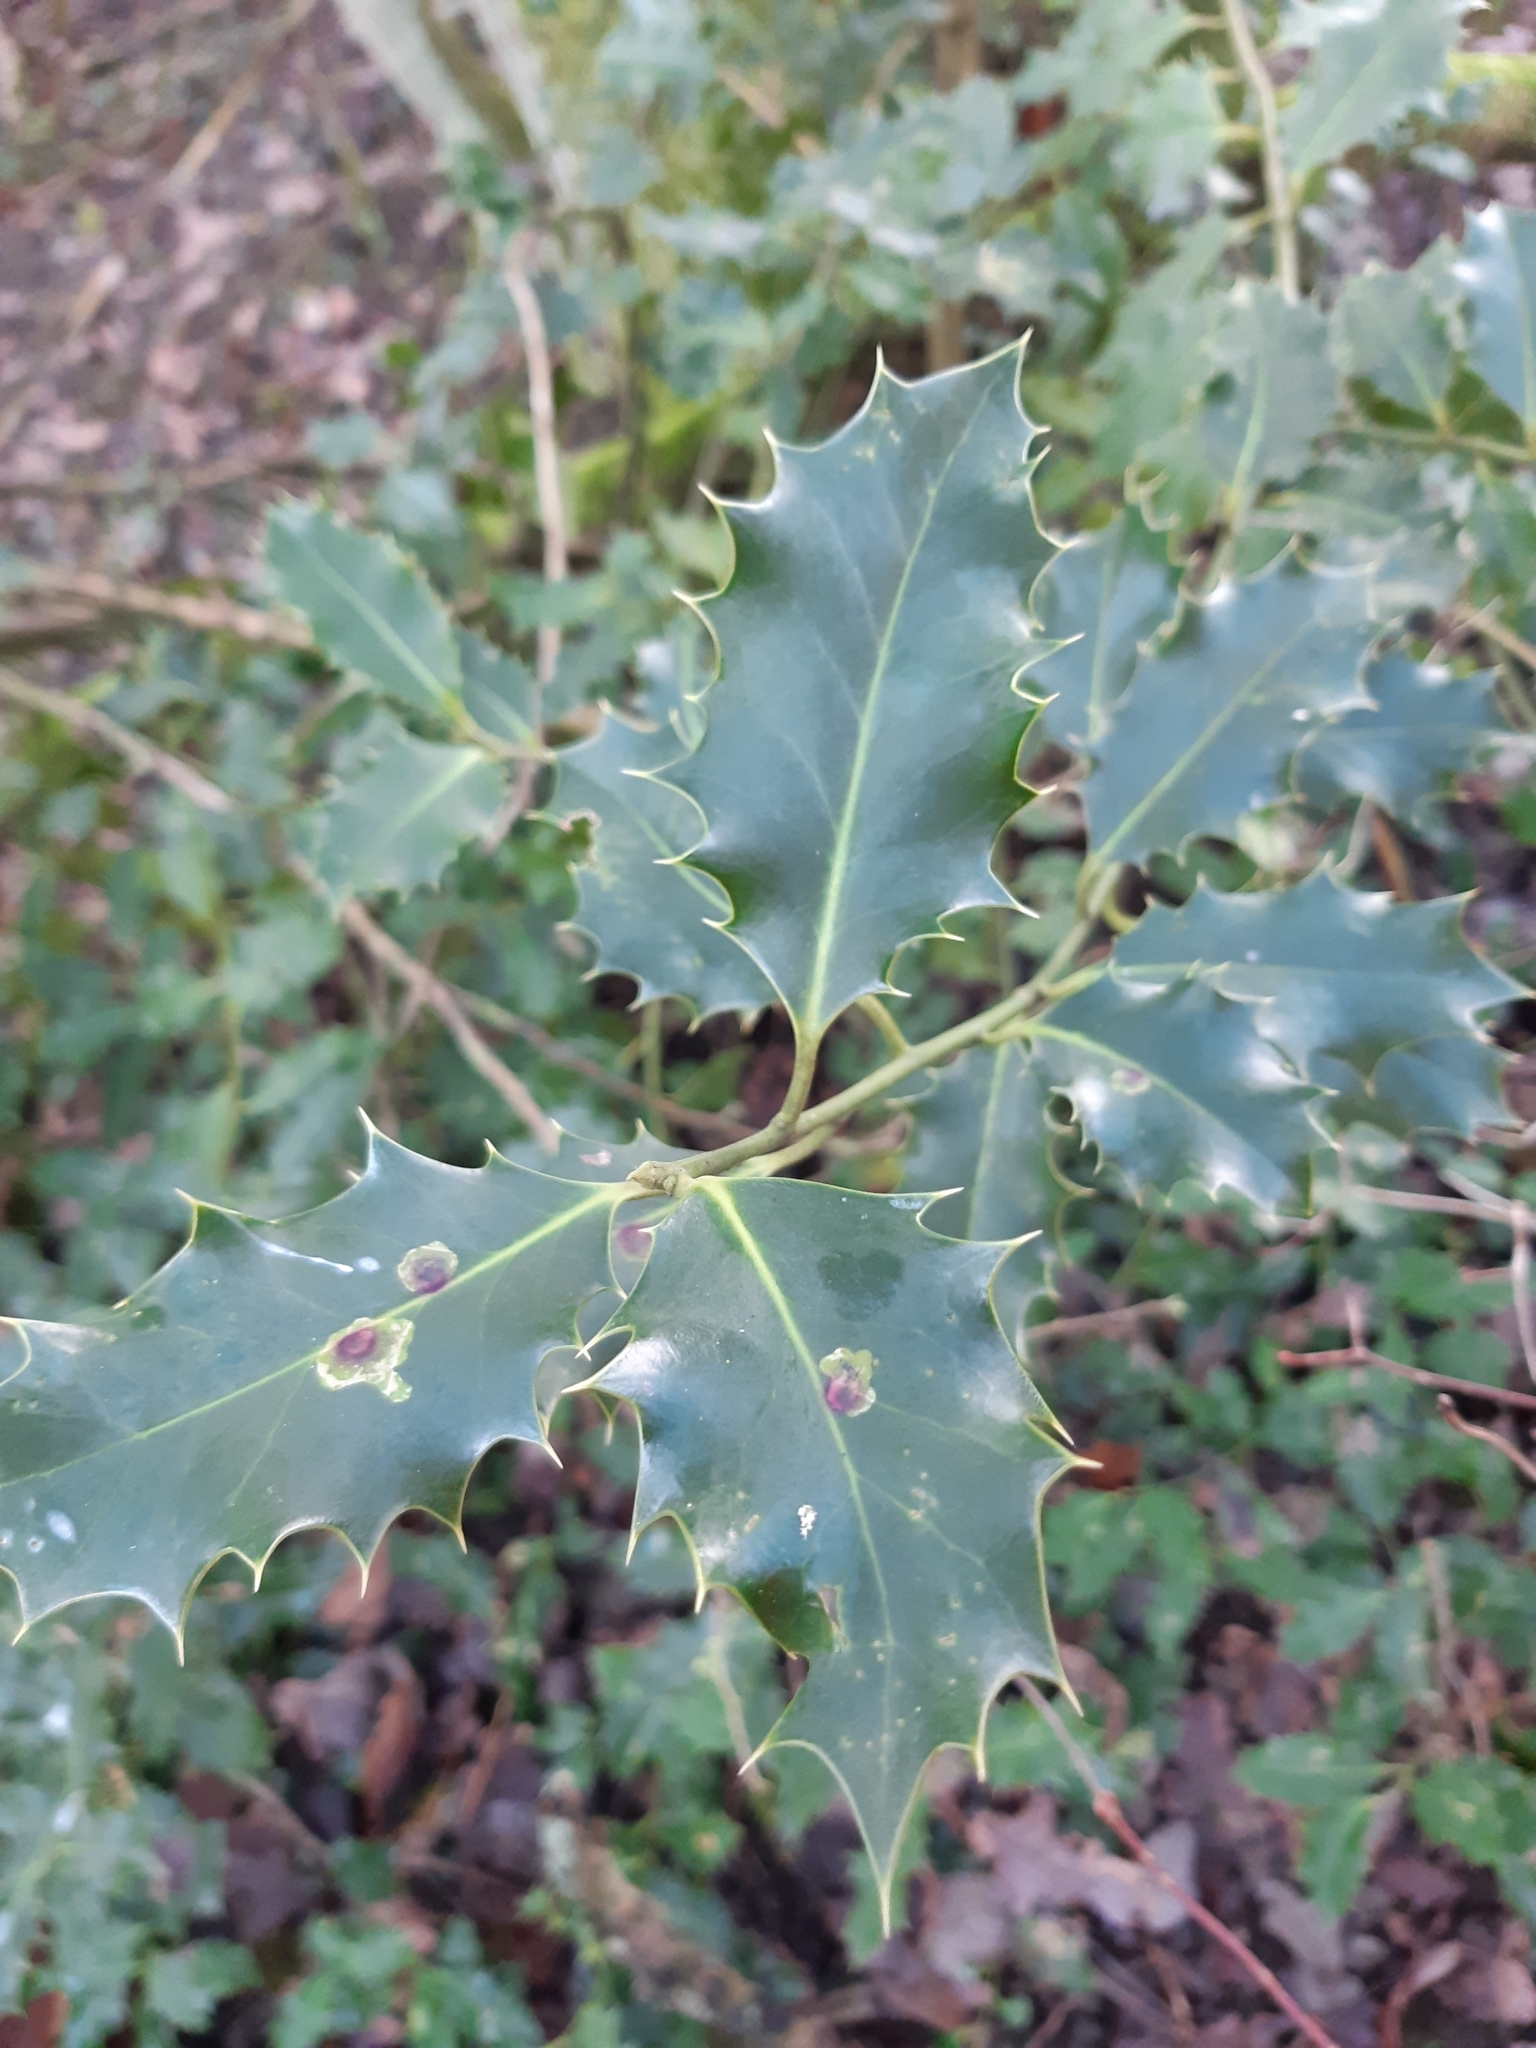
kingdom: Plantae
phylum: Tracheophyta
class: Magnoliopsida
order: Aquifoliales
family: Aquifoliaceae
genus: Ilex
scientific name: Ilex aquifolium
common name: English holly
